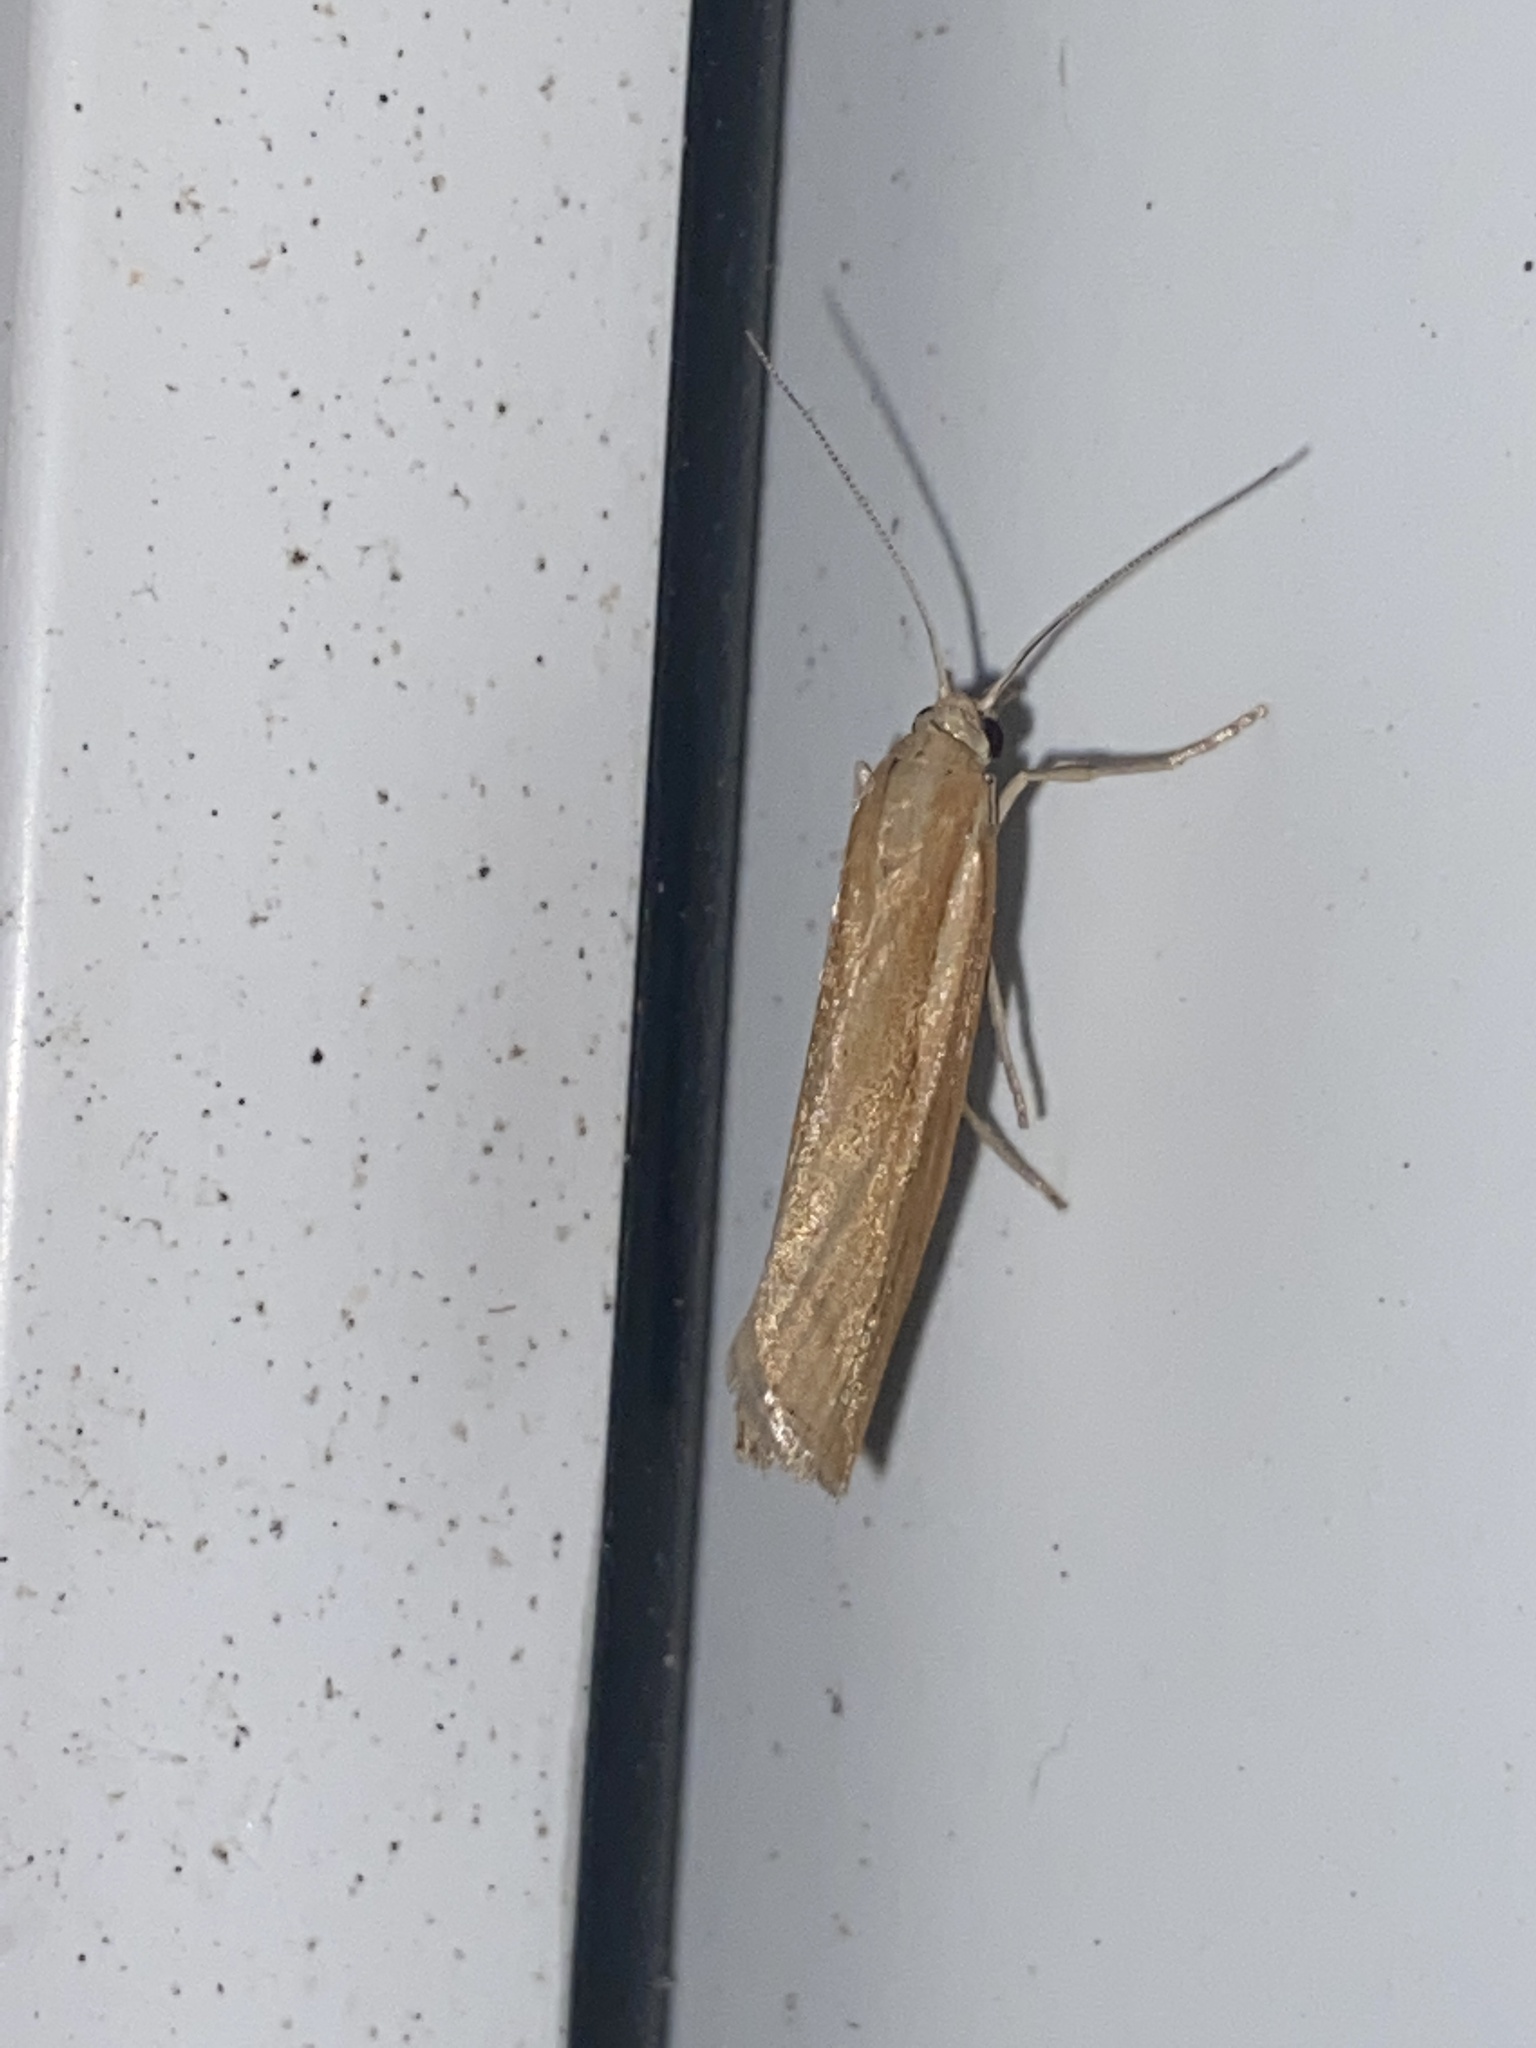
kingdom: Animalia
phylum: Arthropoda
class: Insecta
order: Lepidoptera
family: Crambidae
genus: Agriphila
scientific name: Agriphila tristellus
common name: Common grass-veneer
